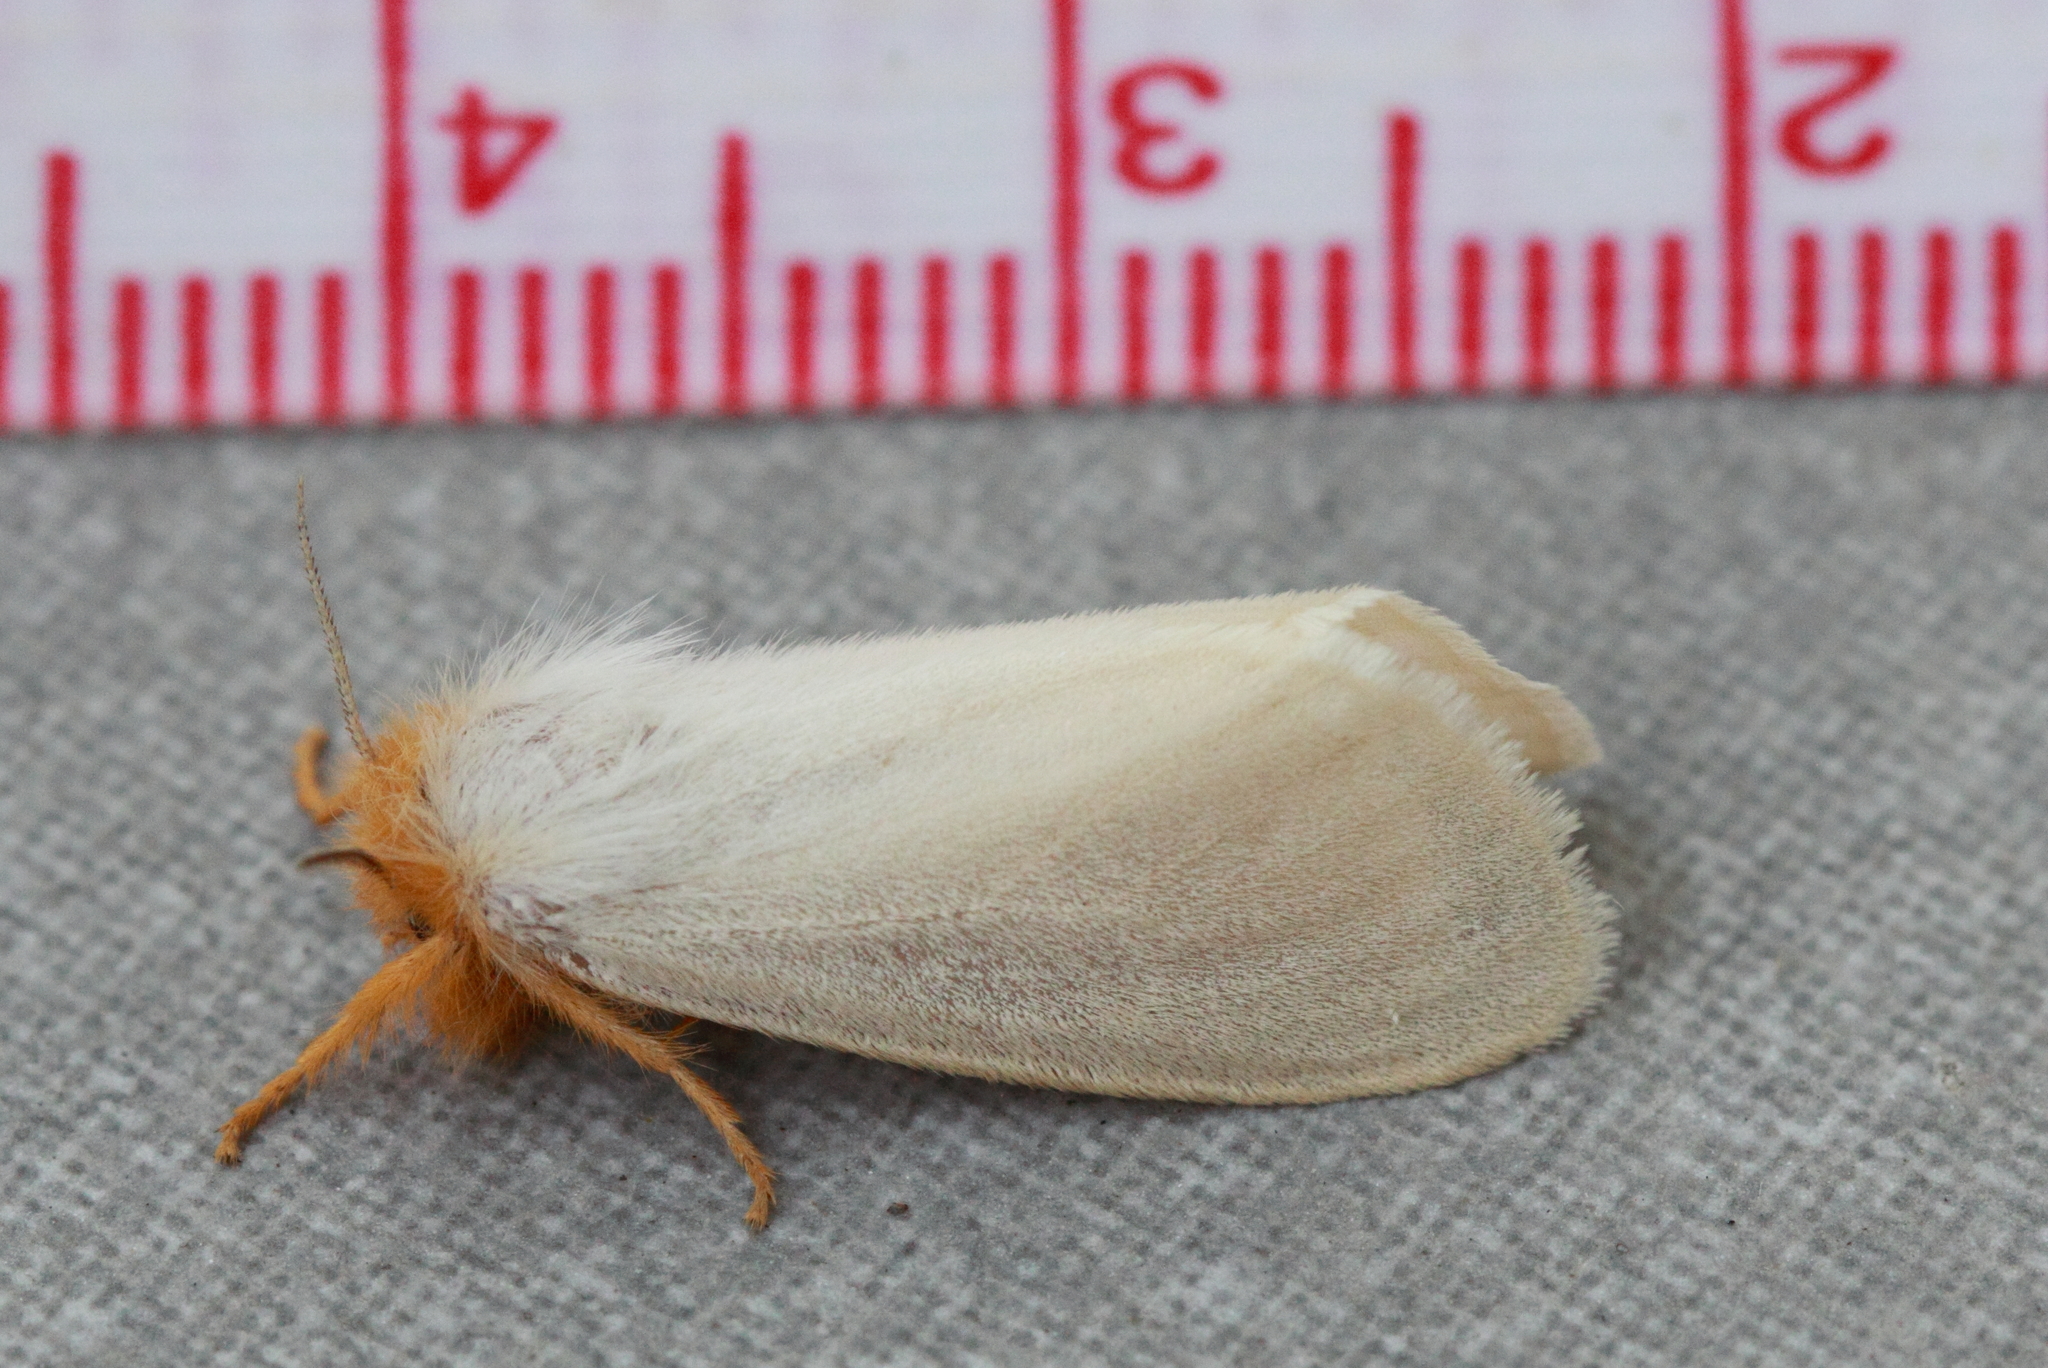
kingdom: Animalia
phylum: Arthropoda
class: Insecta
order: Lepidoptera
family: Erebidae
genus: Laelia
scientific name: Laelia obsoleta
